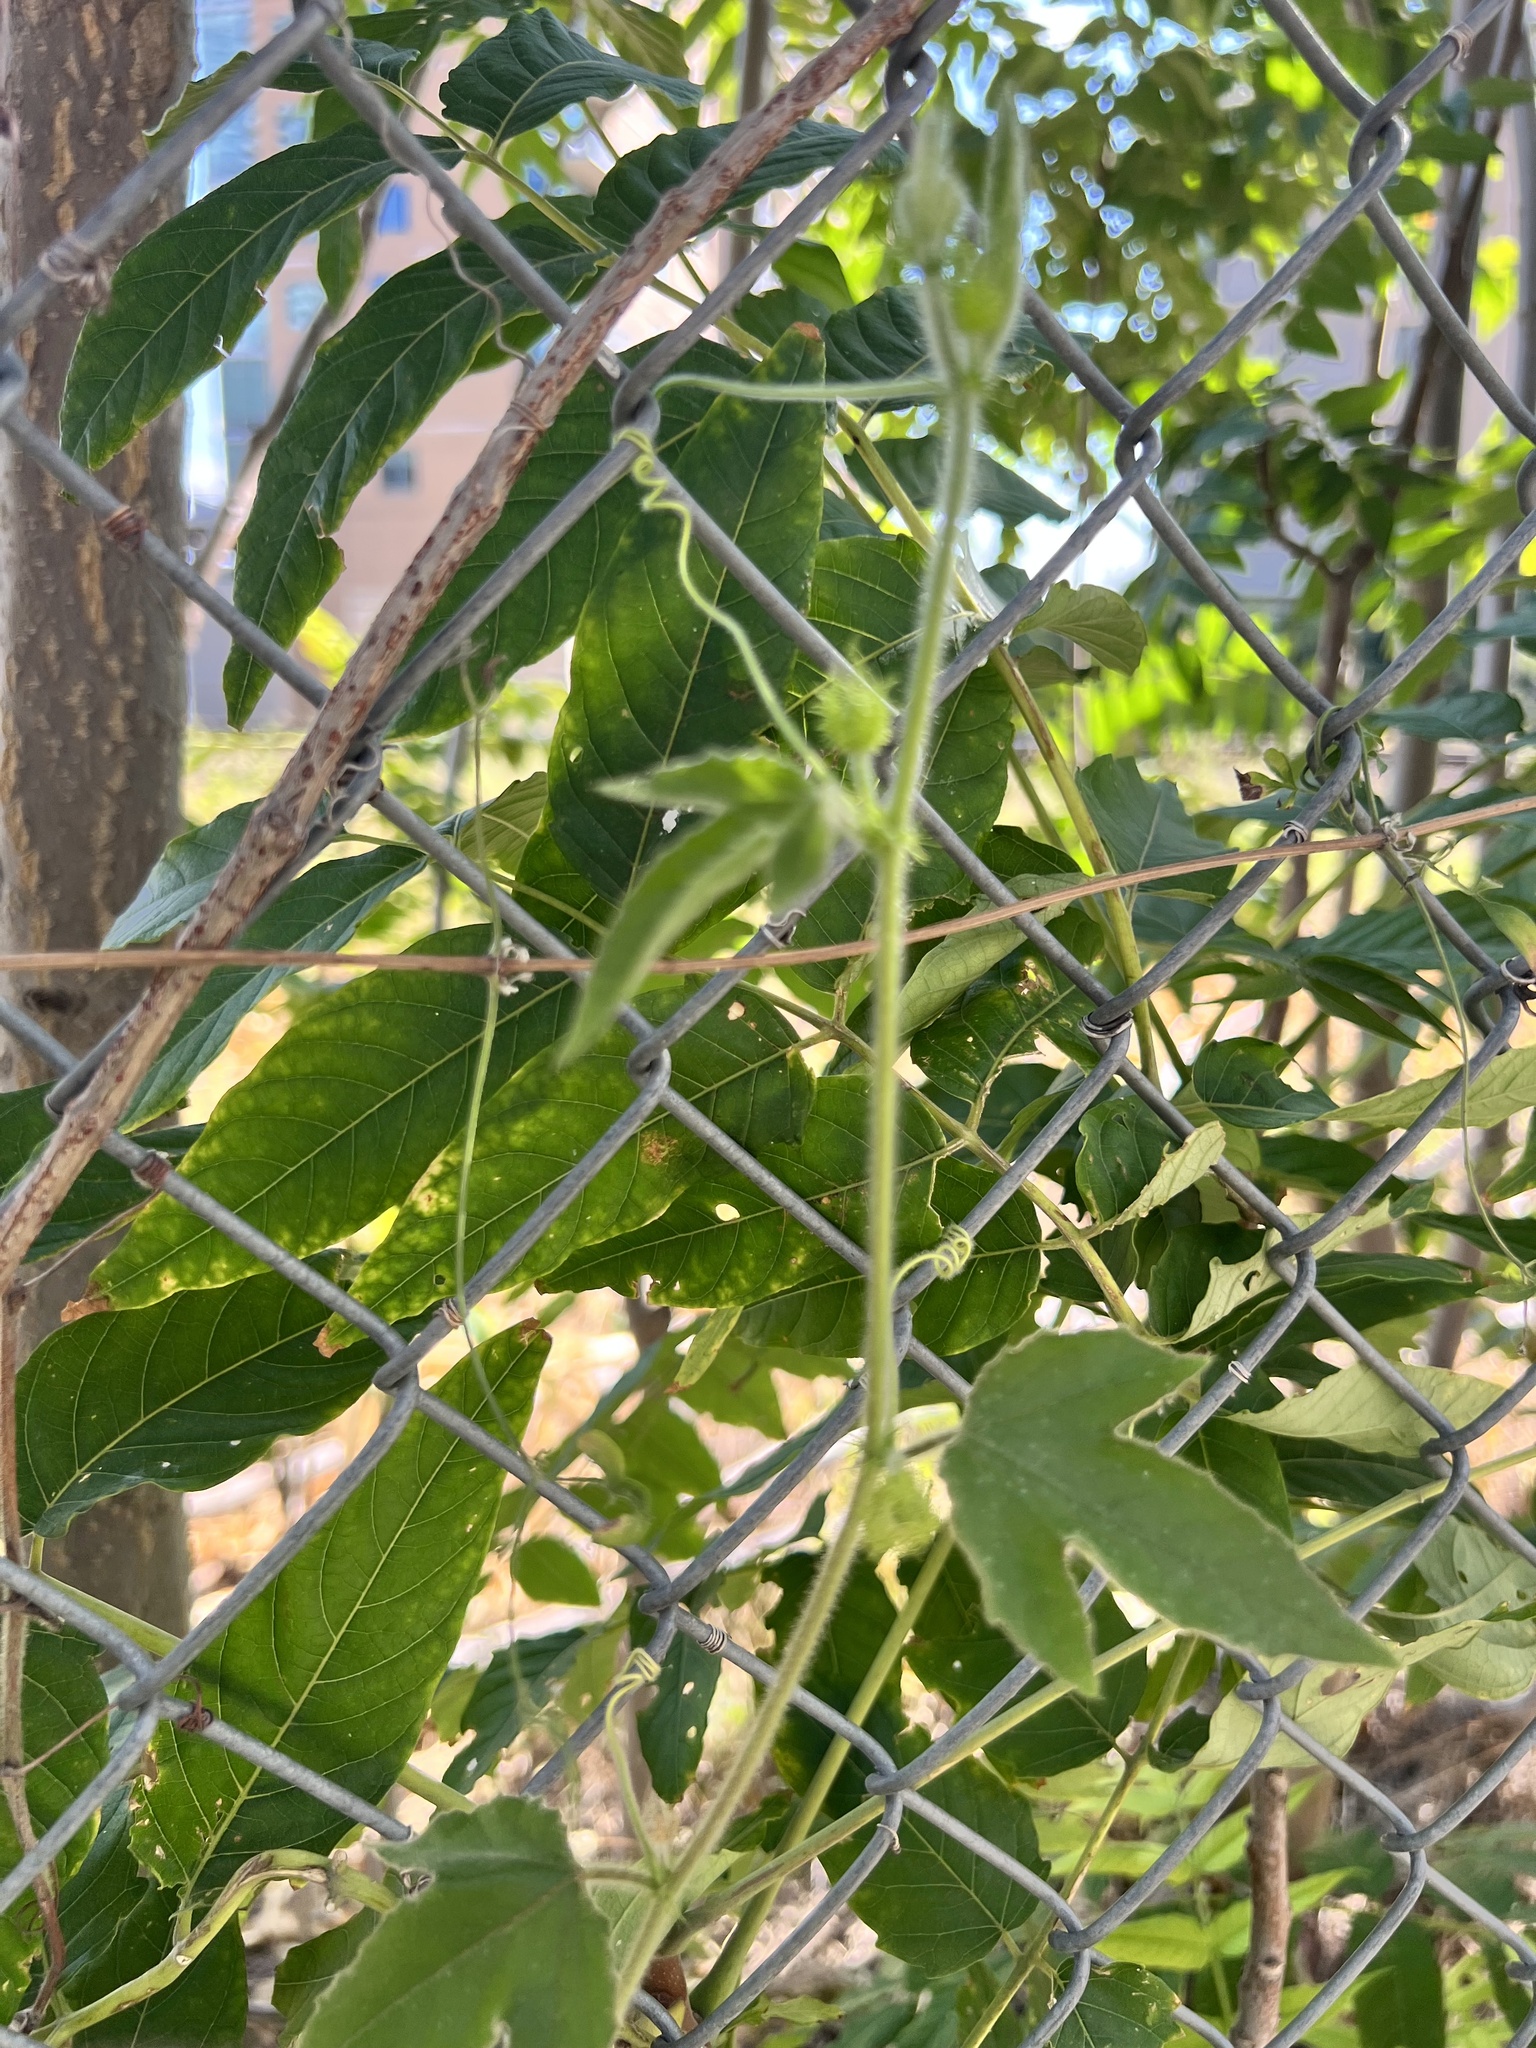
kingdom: Plantae
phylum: Tracheophyta
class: Magnoliopsida
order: Malpighiales
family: Passifloraceae
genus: Passiflora
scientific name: Passiflora
